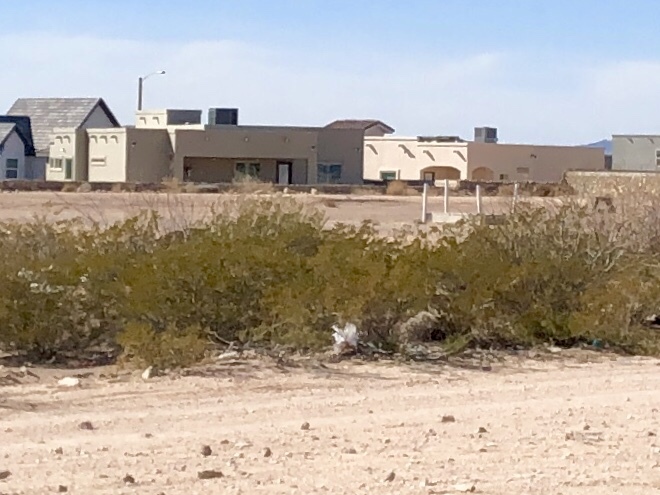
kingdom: Plantae
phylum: Tracheophyta
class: Magnoliopsida
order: Zygophyllales
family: Zygophyllaceae
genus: Larrea
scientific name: Larrea tridentata
